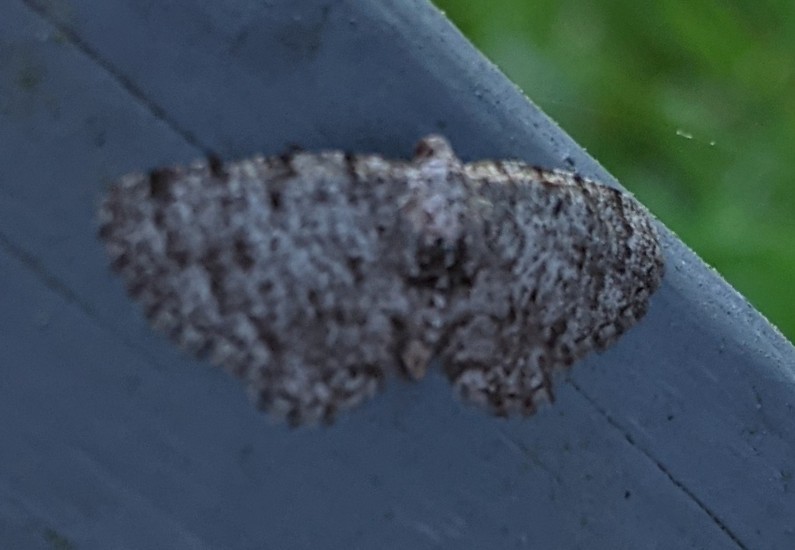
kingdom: Animalia
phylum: Arthropoda
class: Insecta
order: Lepidoptera
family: Geometridae
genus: Aethalura
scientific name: Aethalura intertexta
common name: Four-barred gray
